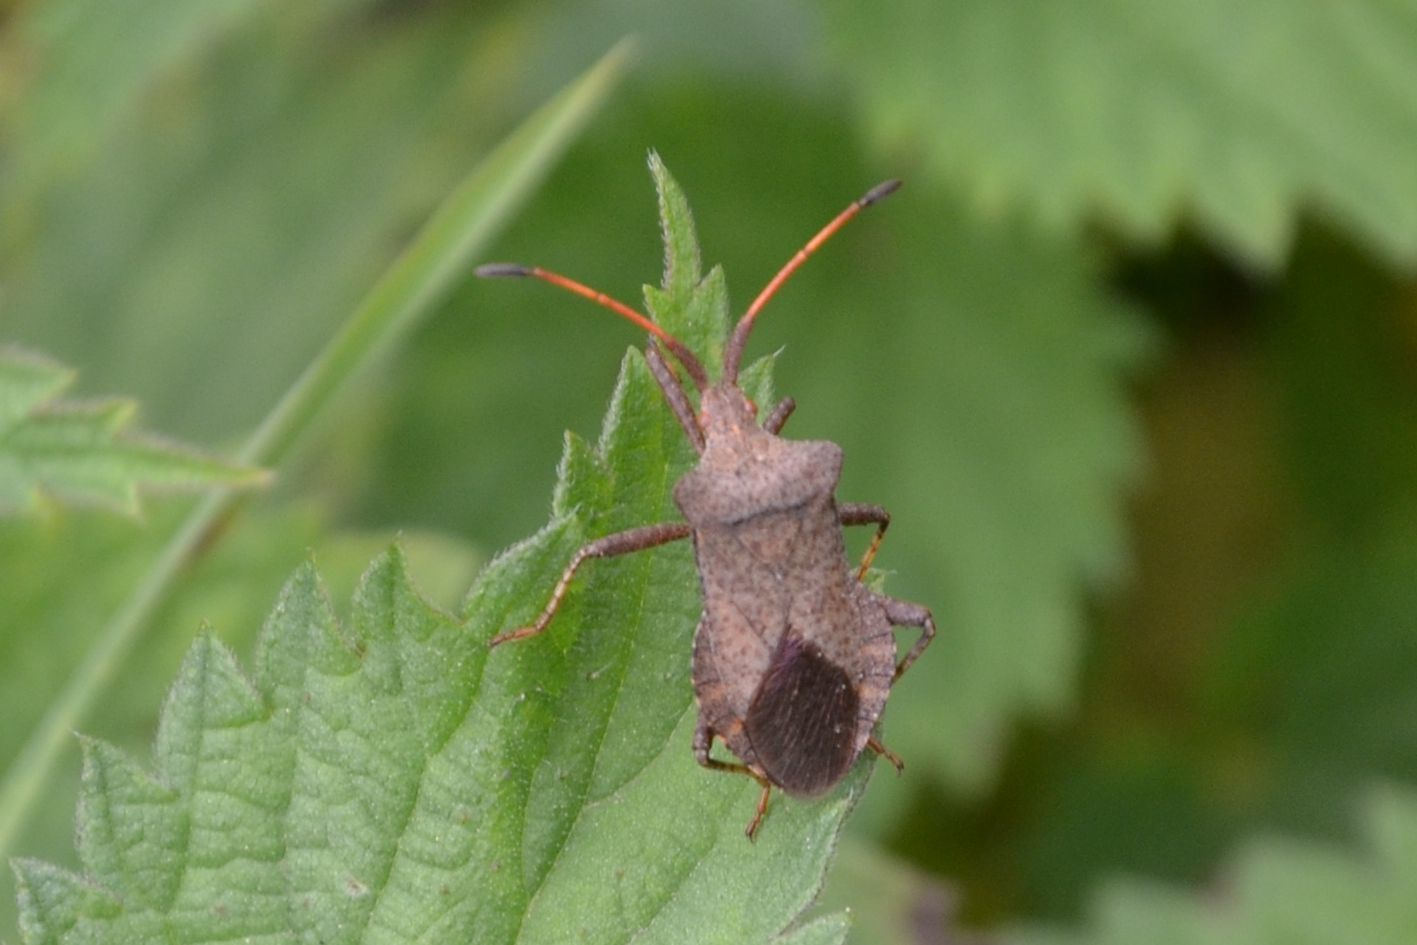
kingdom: Animalia
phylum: Arthropoda
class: Insecta
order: Hemiptera
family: Coreidae
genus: Coreus
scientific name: Coreus marginatus
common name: Dock bug
